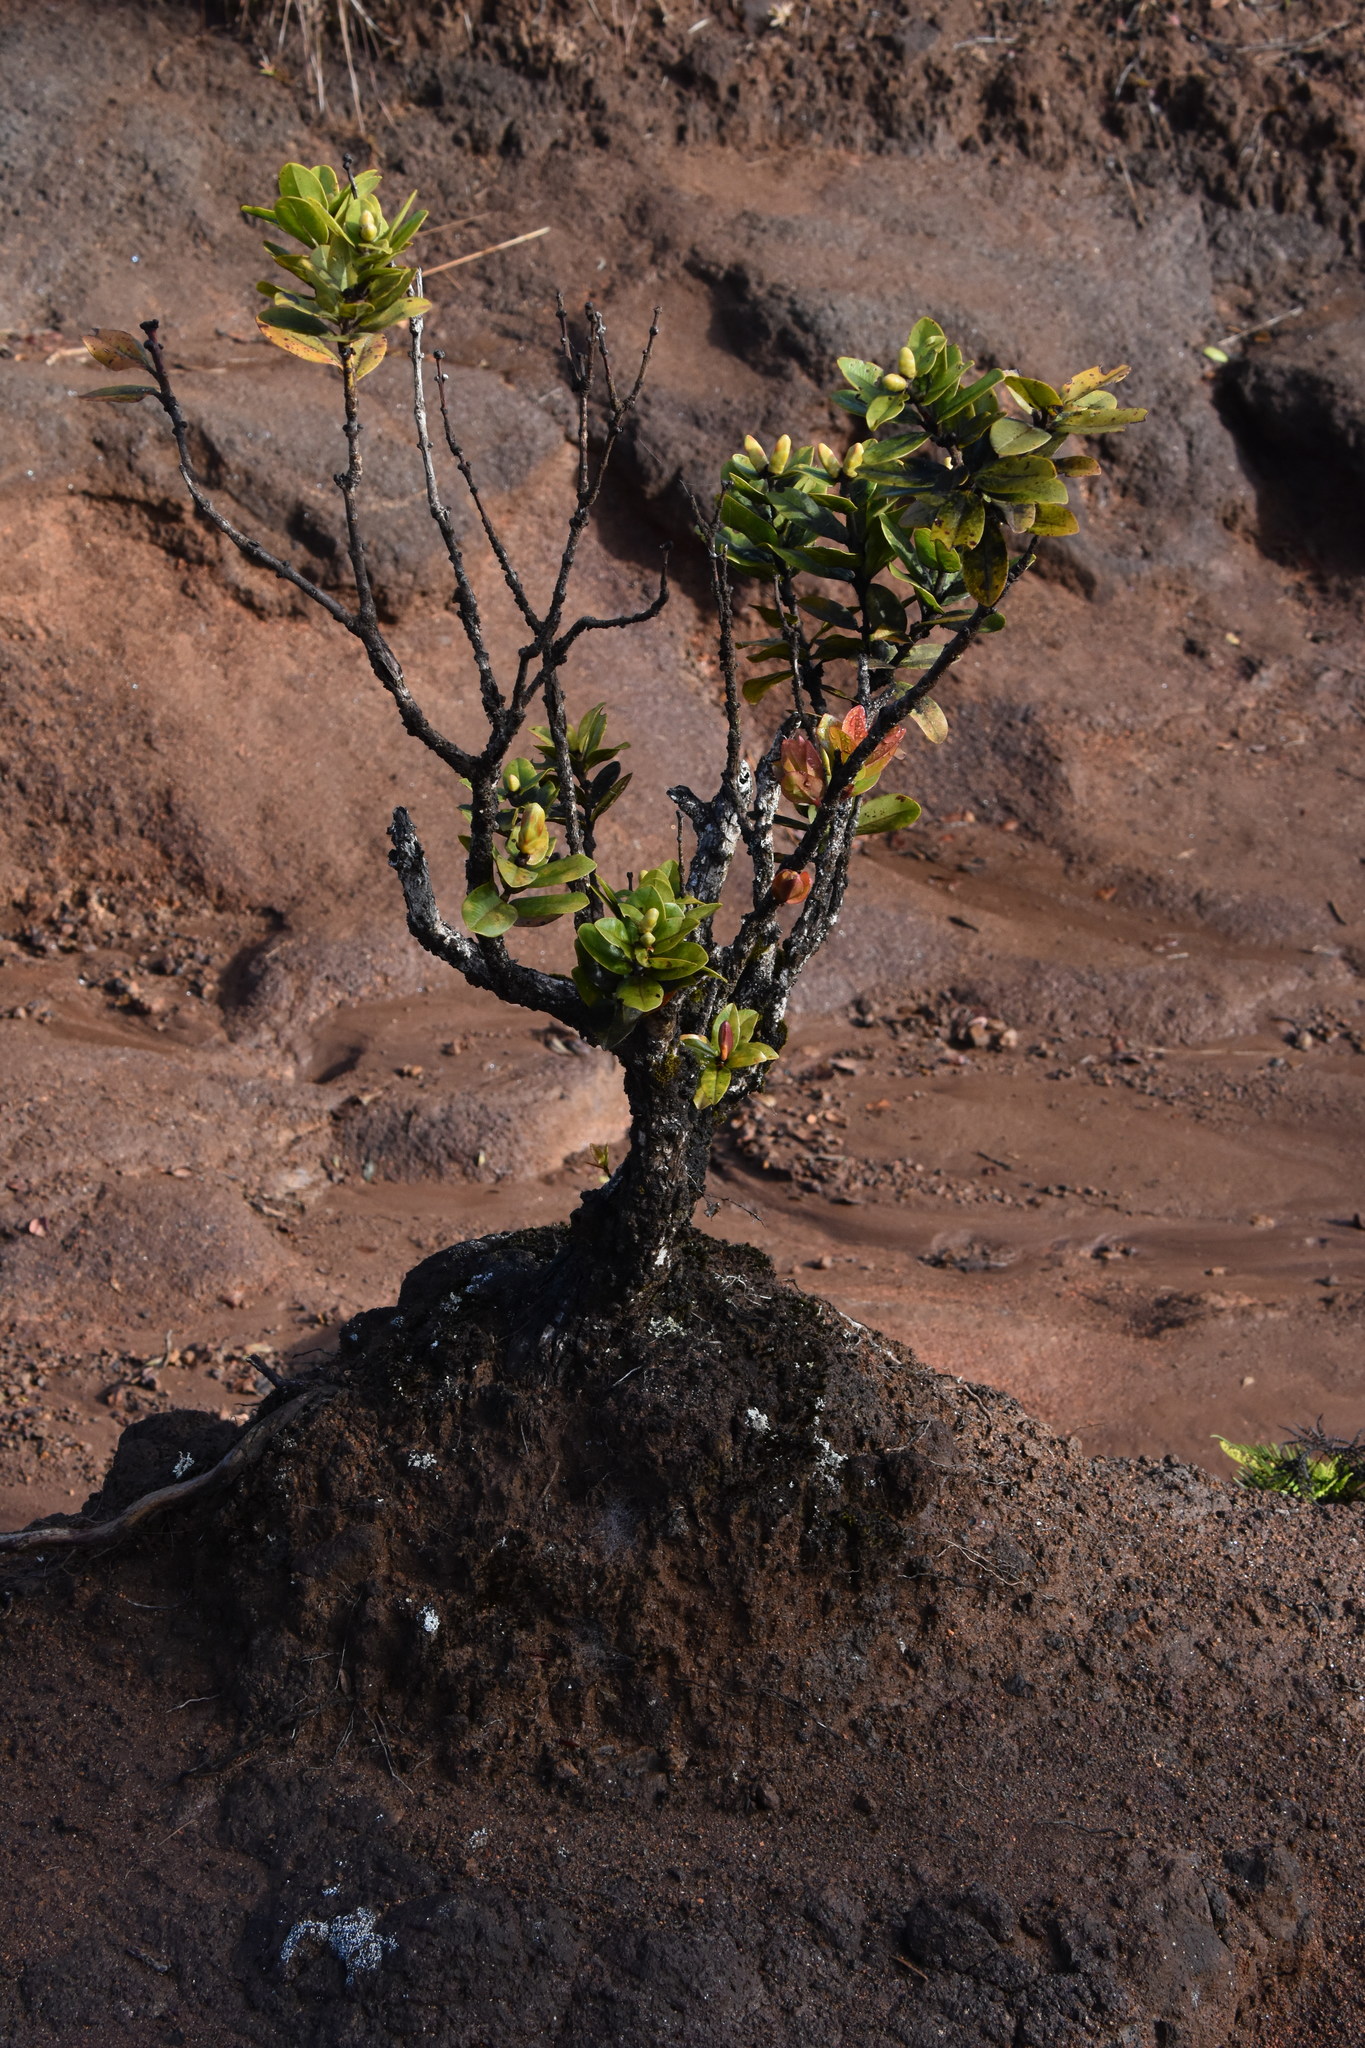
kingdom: Plantae
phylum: Tracheophyta
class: Magnoliopsida
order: Myrtales
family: Myrtaceae
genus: Metrosideros
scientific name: Metrosideros polymorpha
